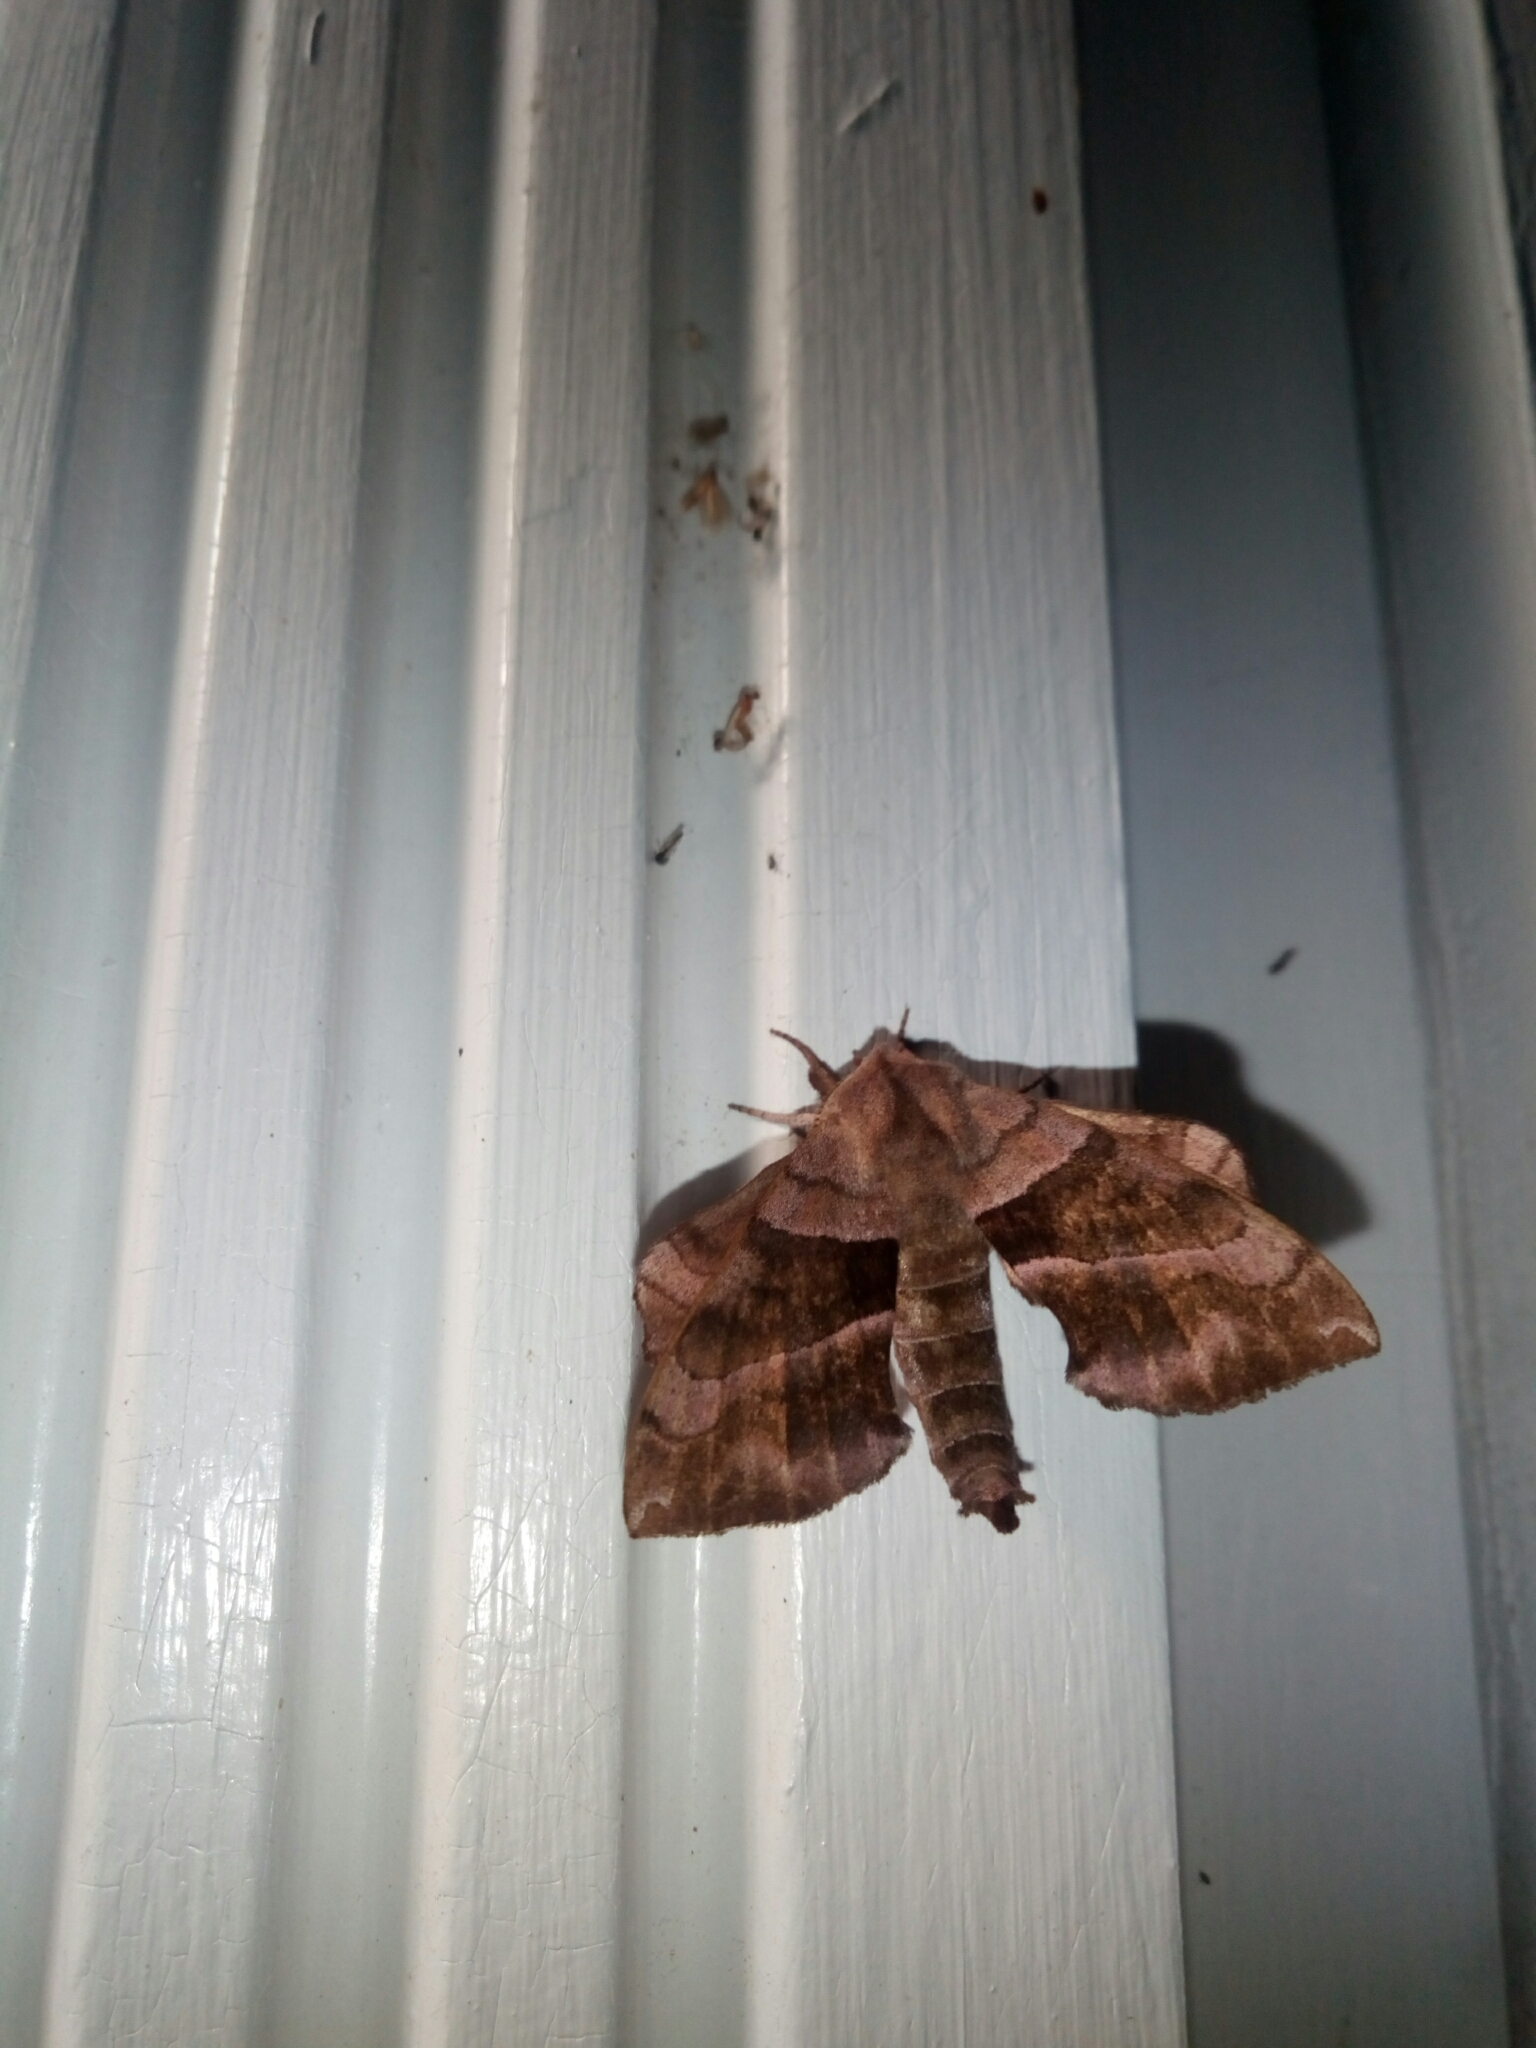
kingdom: Animalia
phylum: Arthropoda
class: Insecta
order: Lepidoptera
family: Sphingidae
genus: Amorpha
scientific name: Amorpha juglandis
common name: Walnut sphinx
